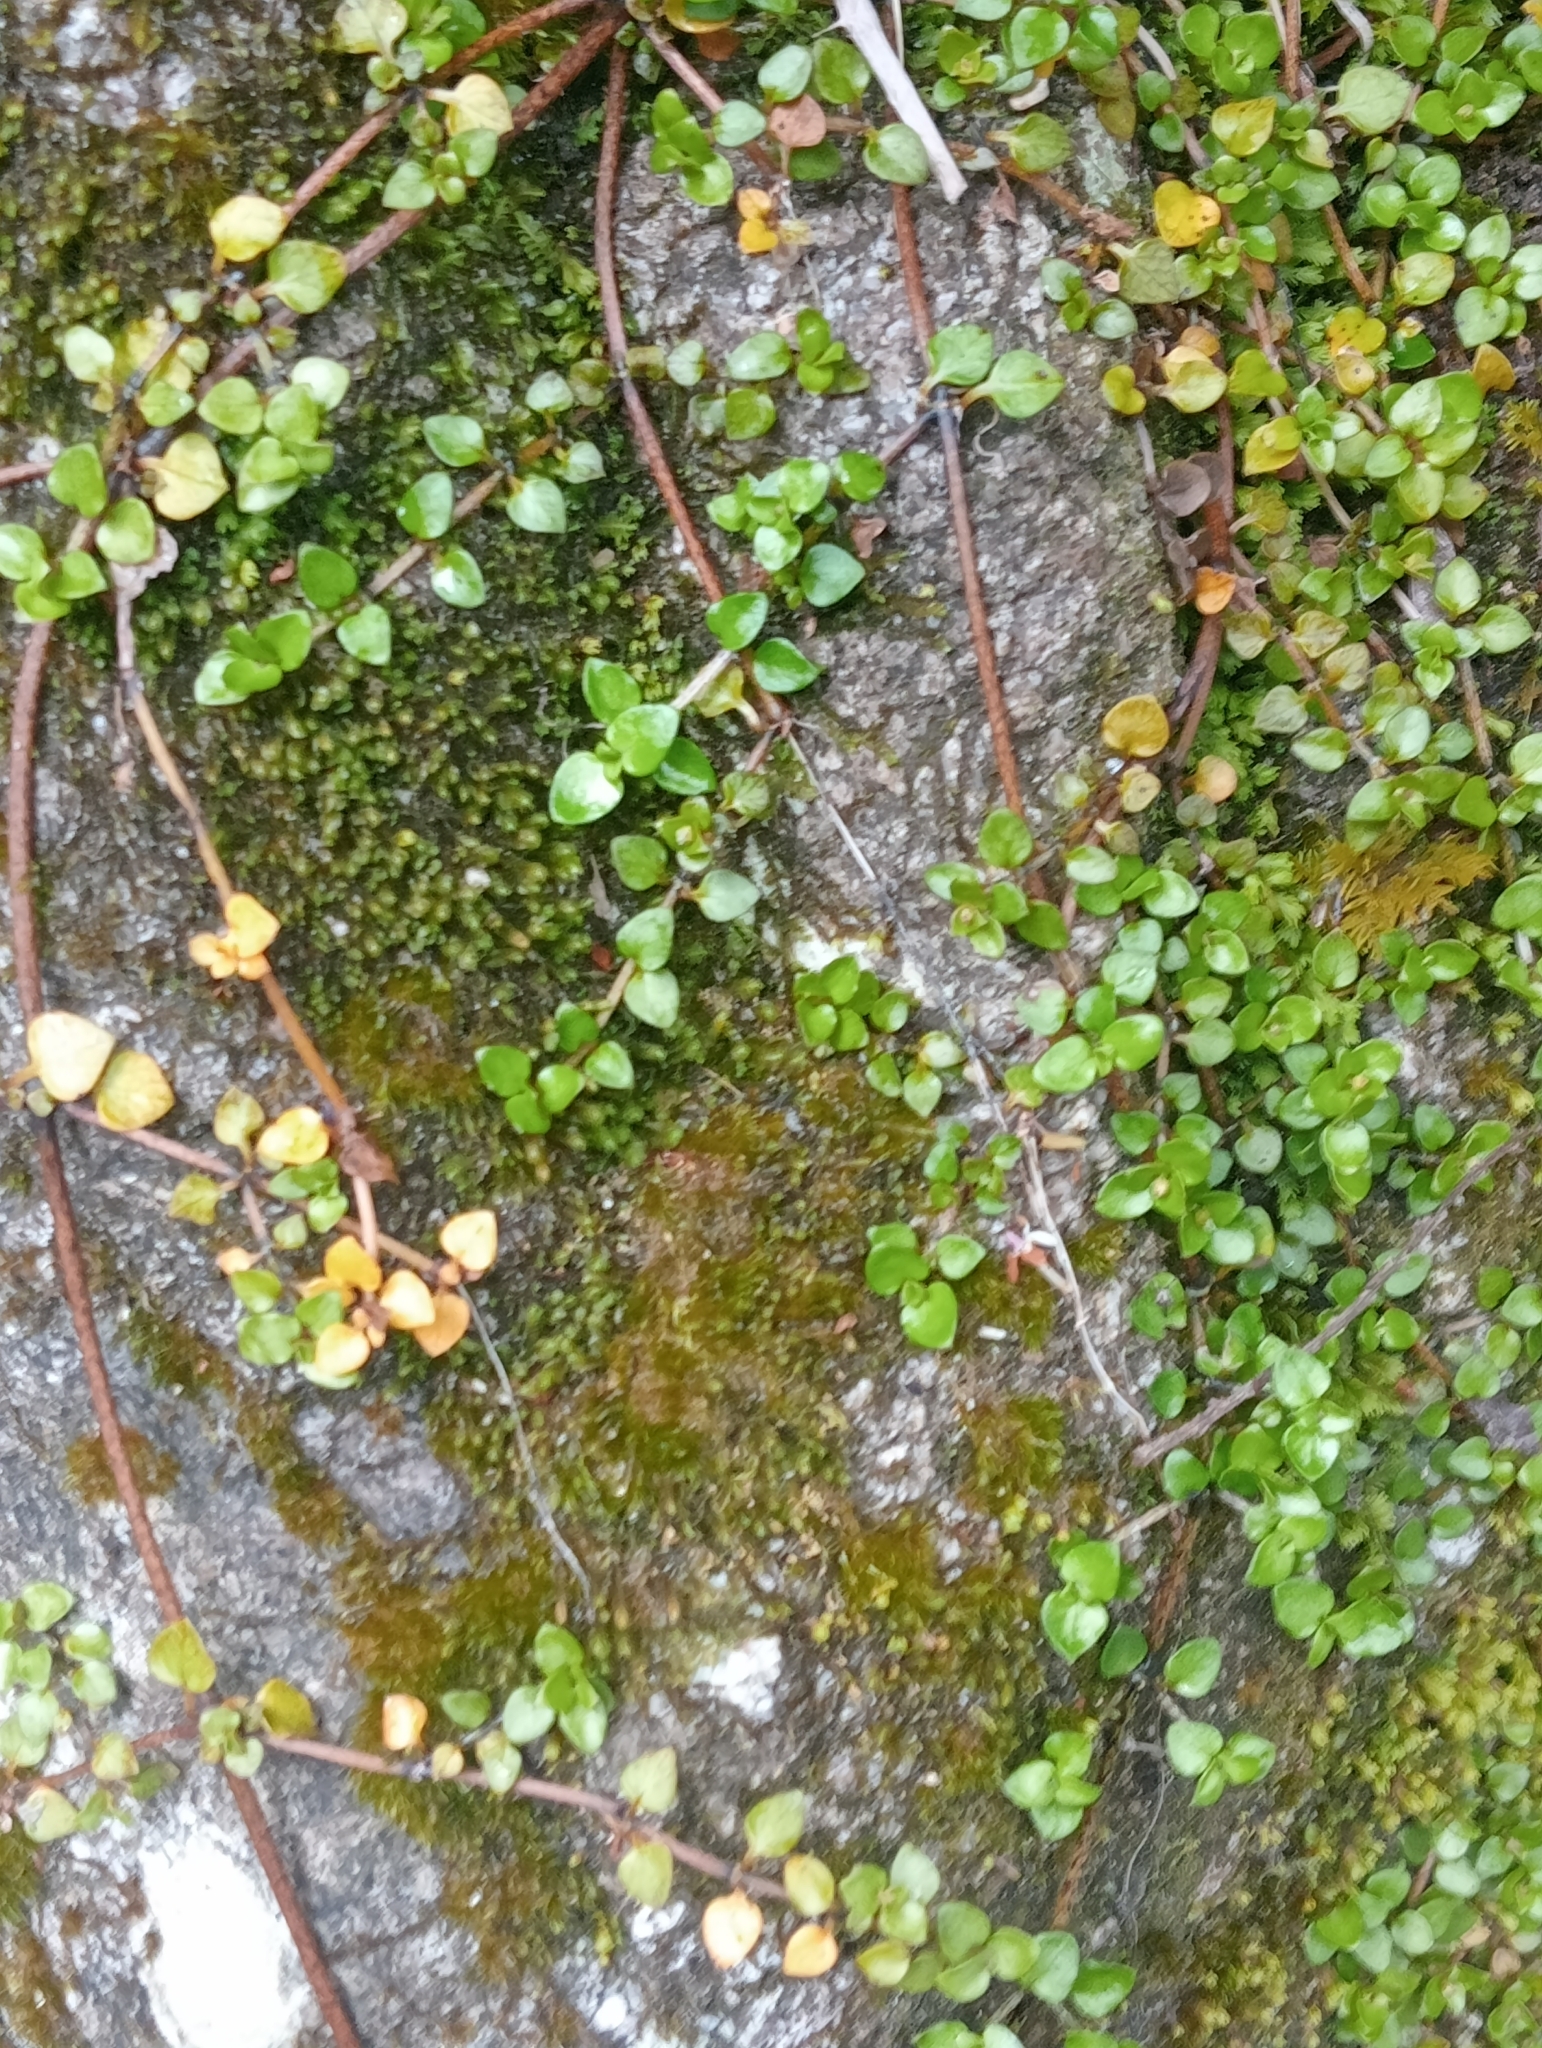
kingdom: Plantae
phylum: Tracheophyta
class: Magnoliopsida
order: Gentianales
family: Rubiaceae
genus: Nertera
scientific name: Nertera granadensis
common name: Beadplant
